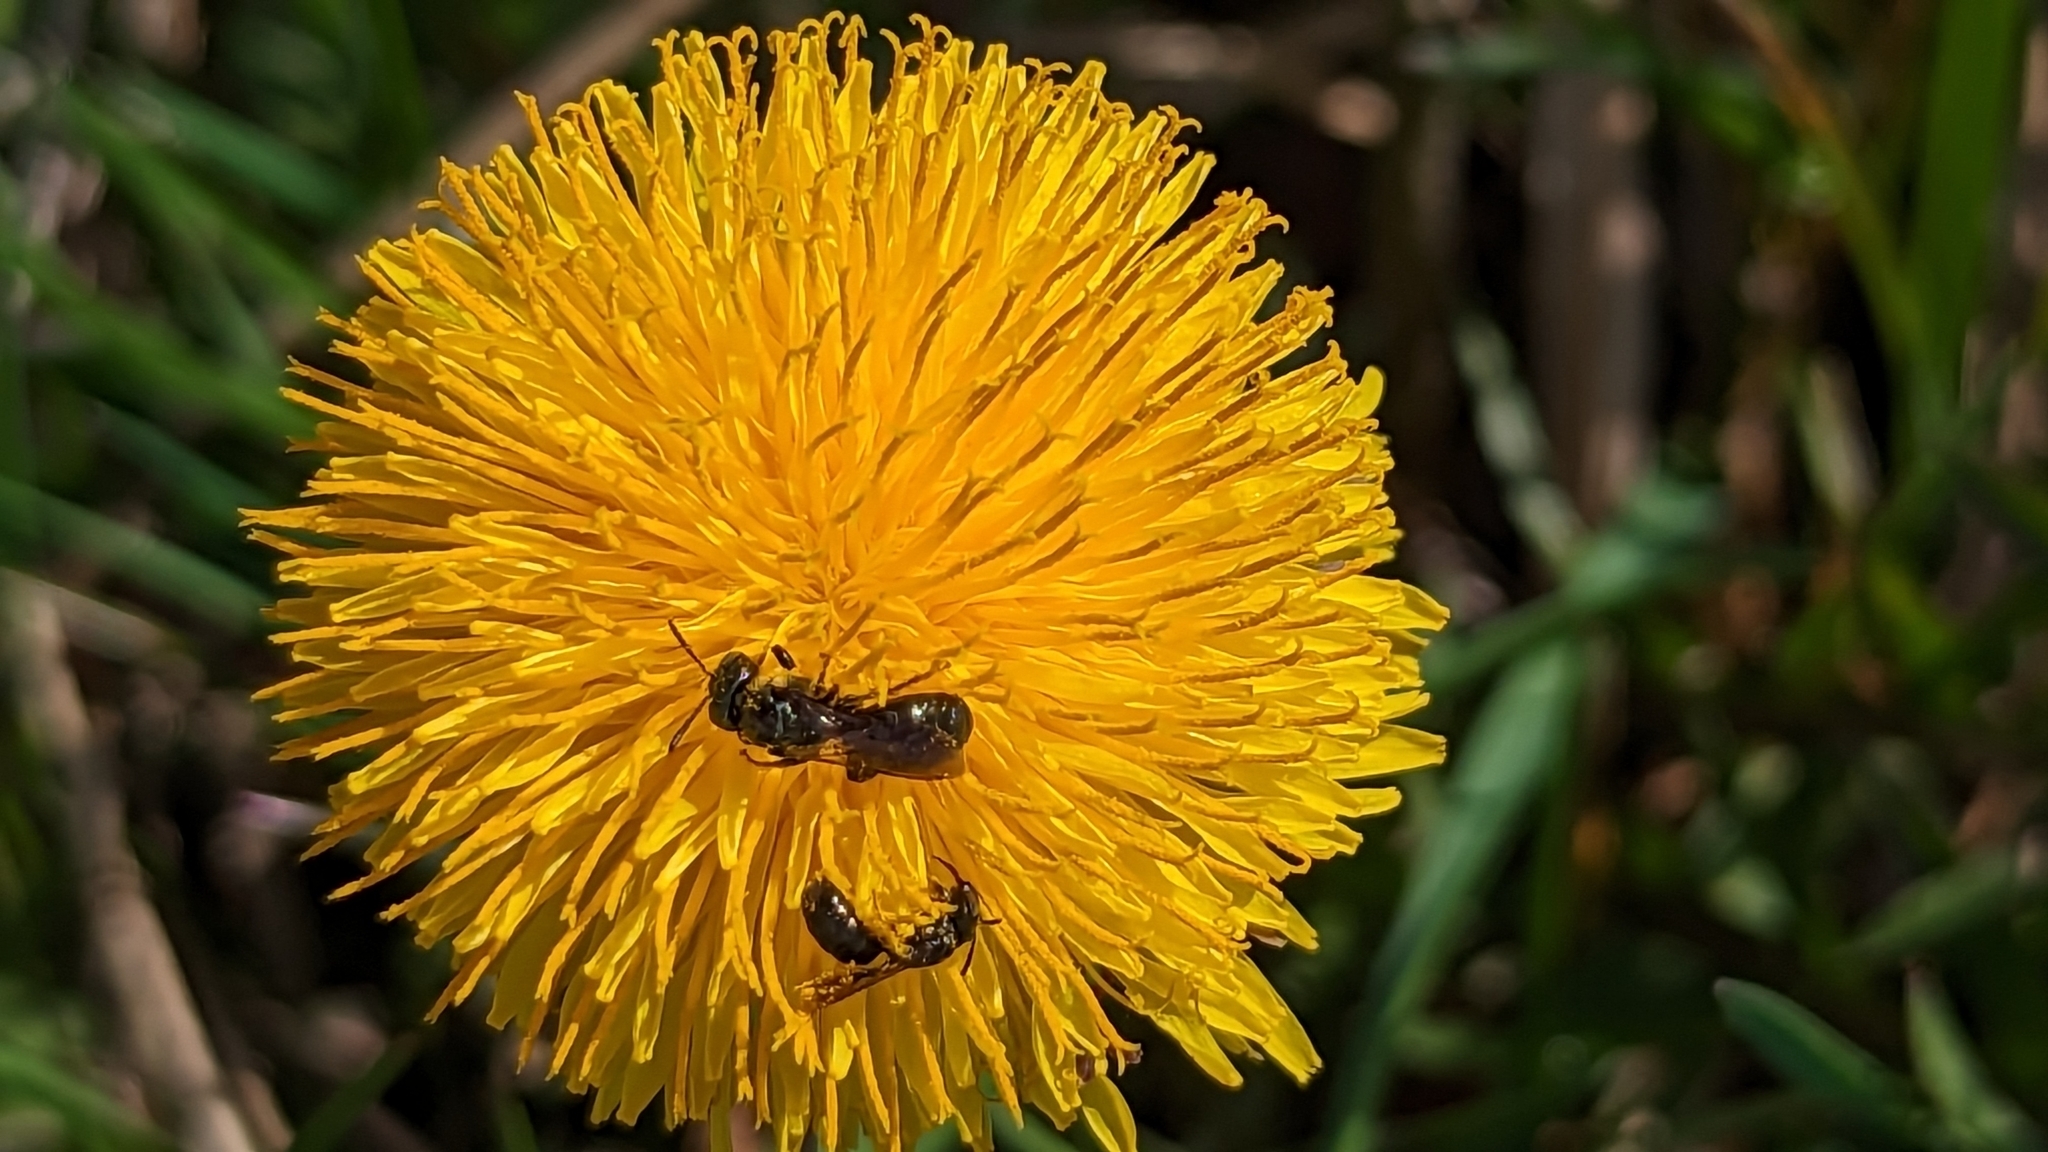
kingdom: Animalia
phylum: Arthropoda
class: Insecta
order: Hymenoptera
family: Apidae
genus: Zadontomerus
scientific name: Zadontomerus
